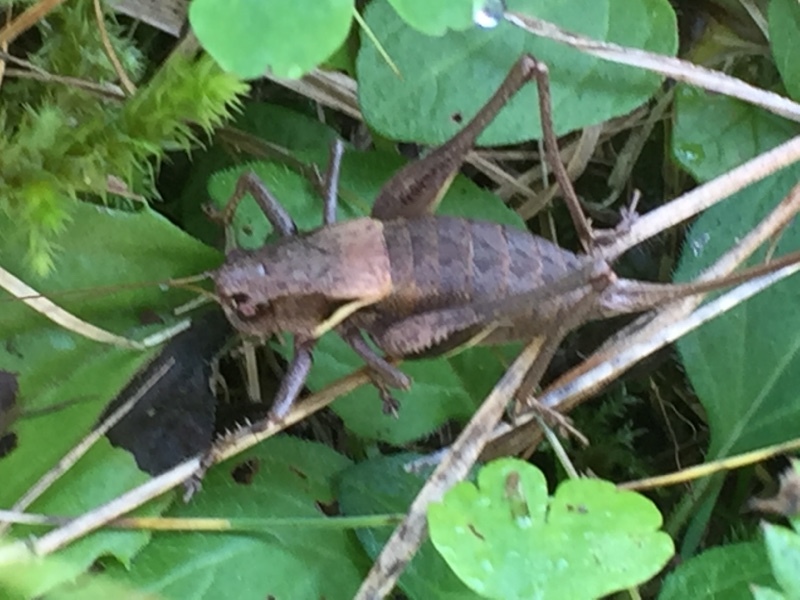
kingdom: Animalia
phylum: Arthropoda
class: Insecta
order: Orthoptera
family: Tettigoniidae
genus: Pholidoptera
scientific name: Pholidoptera aptera
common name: Alpine dark bush-cricket
